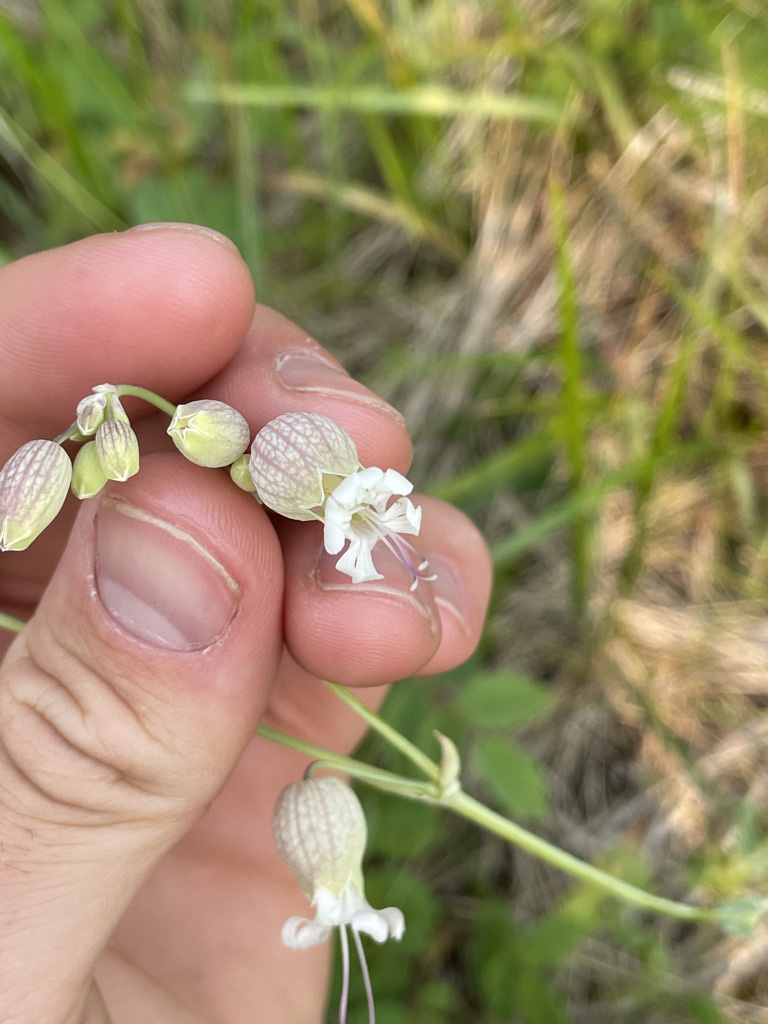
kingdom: Plantae
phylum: Tracheophyta
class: Magnoliopsida
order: Caryophyllales
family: Caryophyllaceae
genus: Silene
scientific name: Silene vulgaris
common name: Bladder campion
